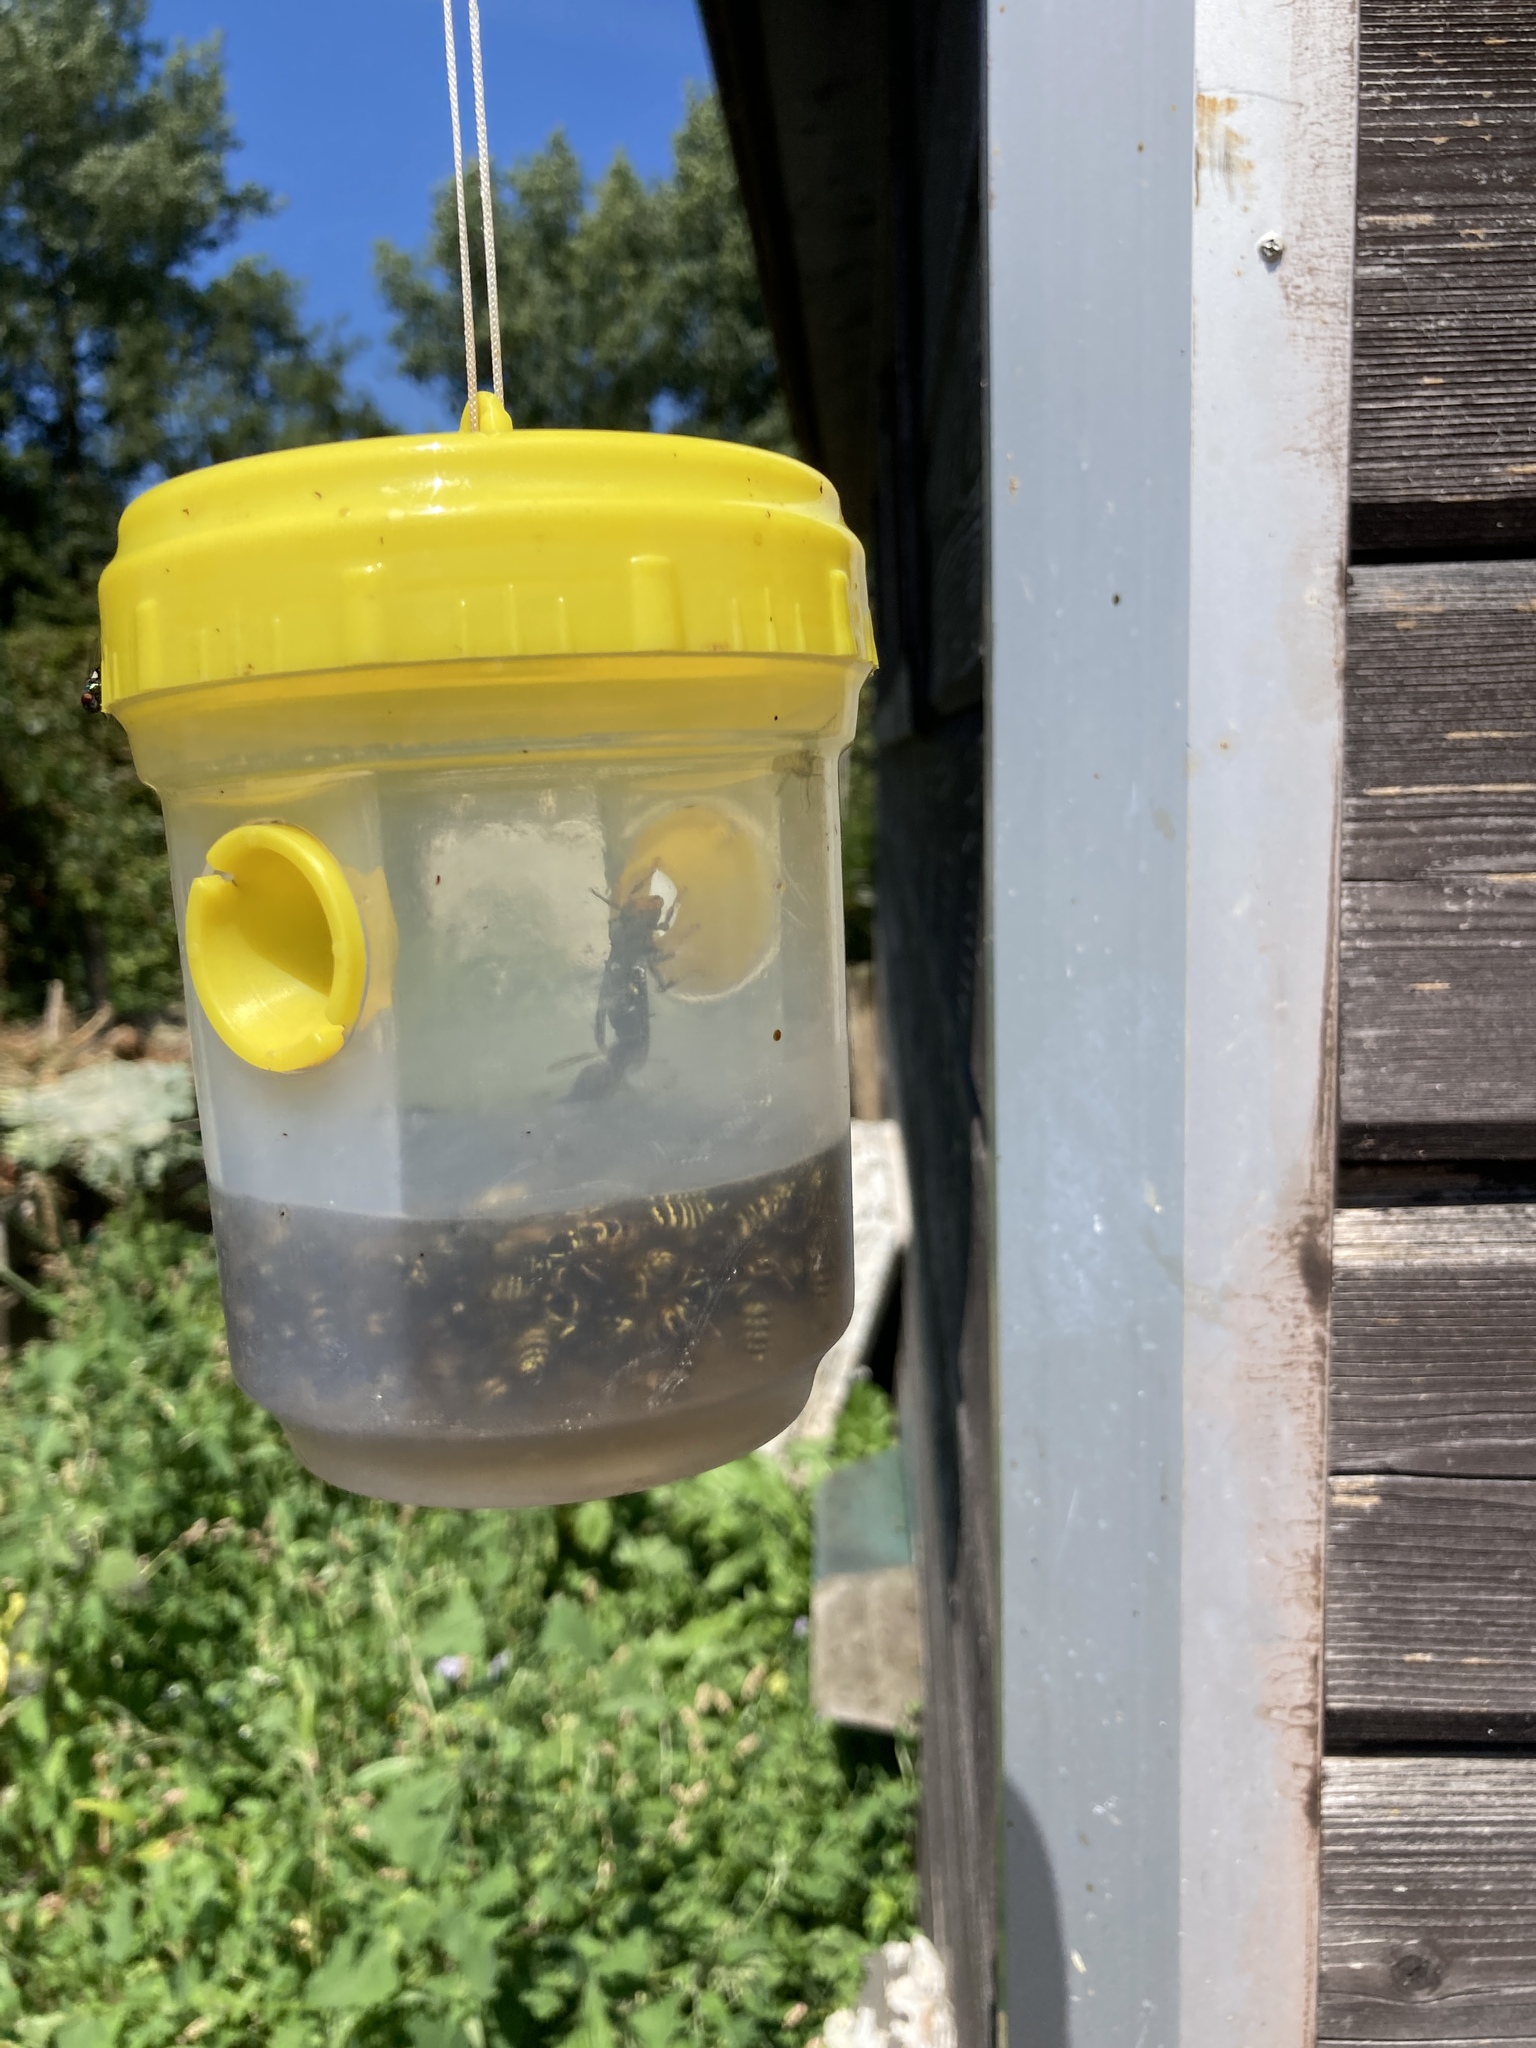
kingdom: Animalia
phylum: Arthropoda
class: Insecta
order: Hymenoptera
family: Vespidae
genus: Vespa
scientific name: Vespa velutina
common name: Asian hornet
